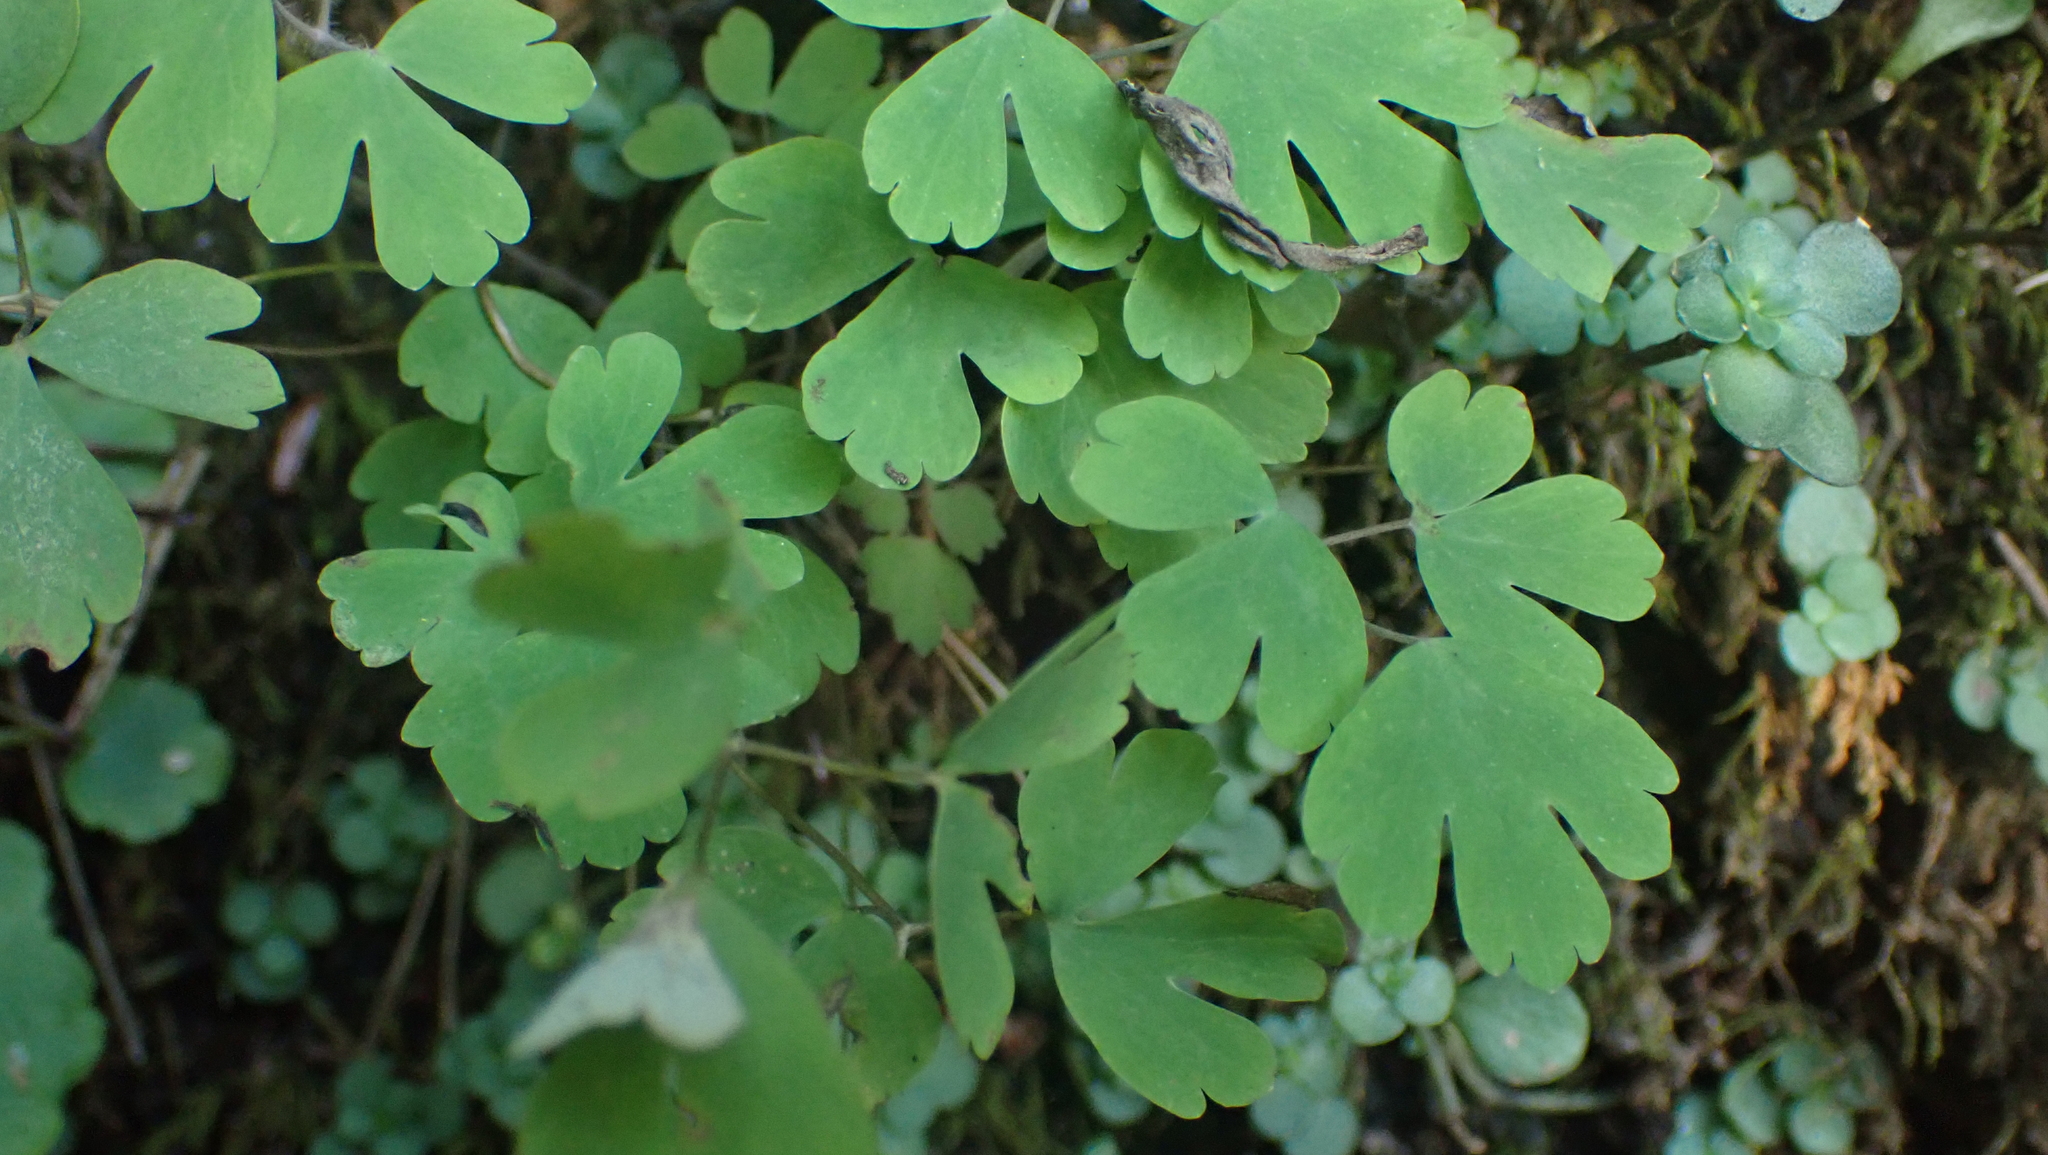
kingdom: Plantae
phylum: Tracheophyta
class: Magnoliopsida
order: Ranunculales
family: Ranunculaceae
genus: Aquilegia
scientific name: Aquilegia canadensis
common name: American columbine
